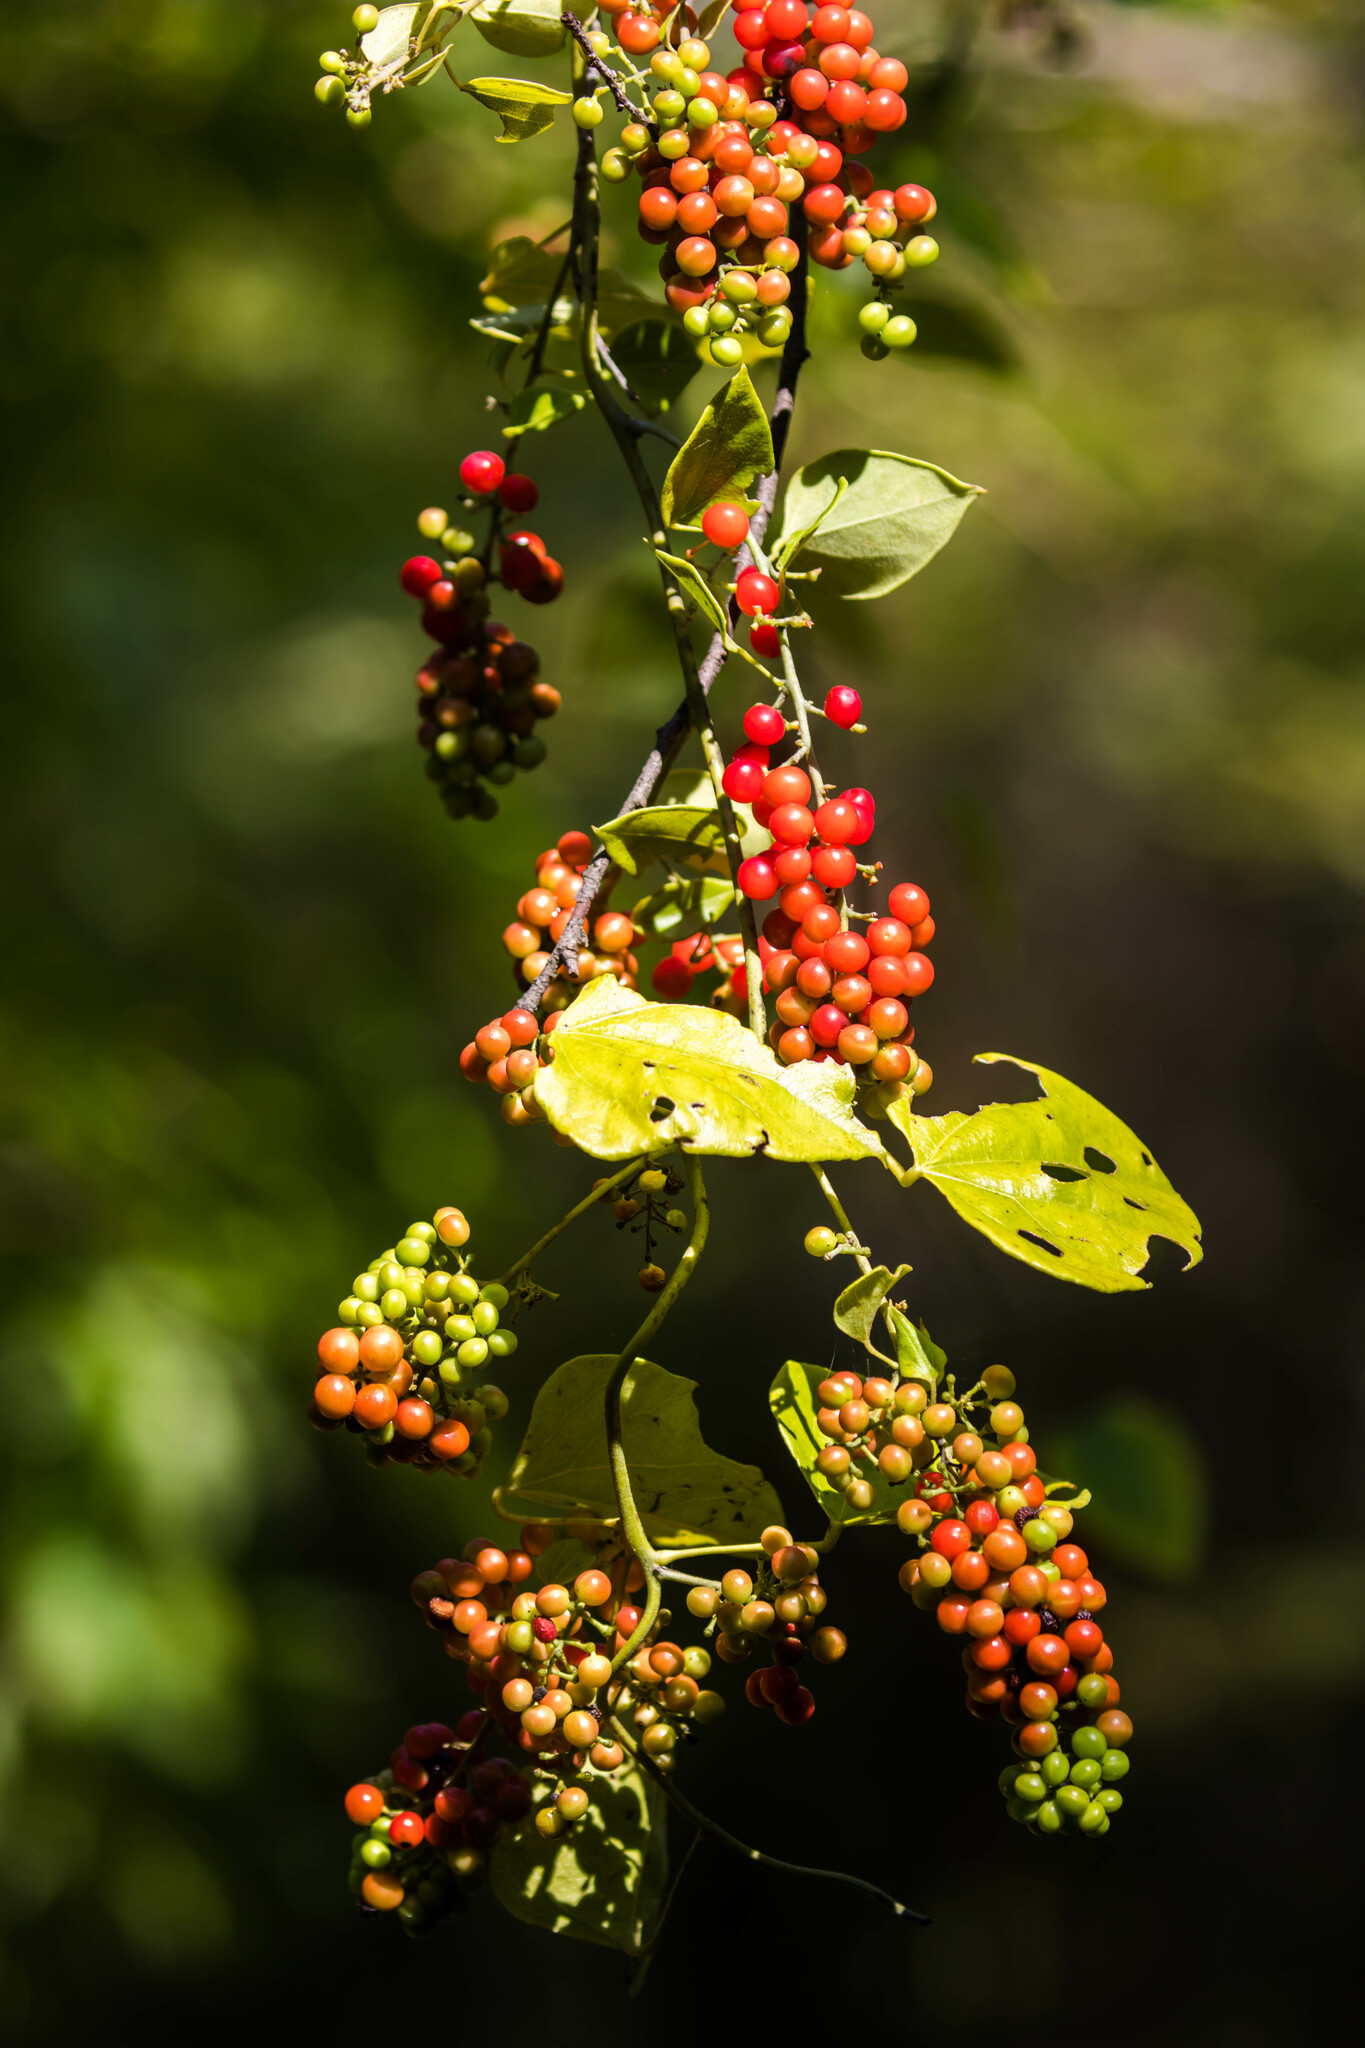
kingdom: Plantae
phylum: Tracheophyta
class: Magnoliopsida
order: Ranunculales
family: Menispermaceae
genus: Cocculus
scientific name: Cocculus carolinus
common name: Carolina moonseed
